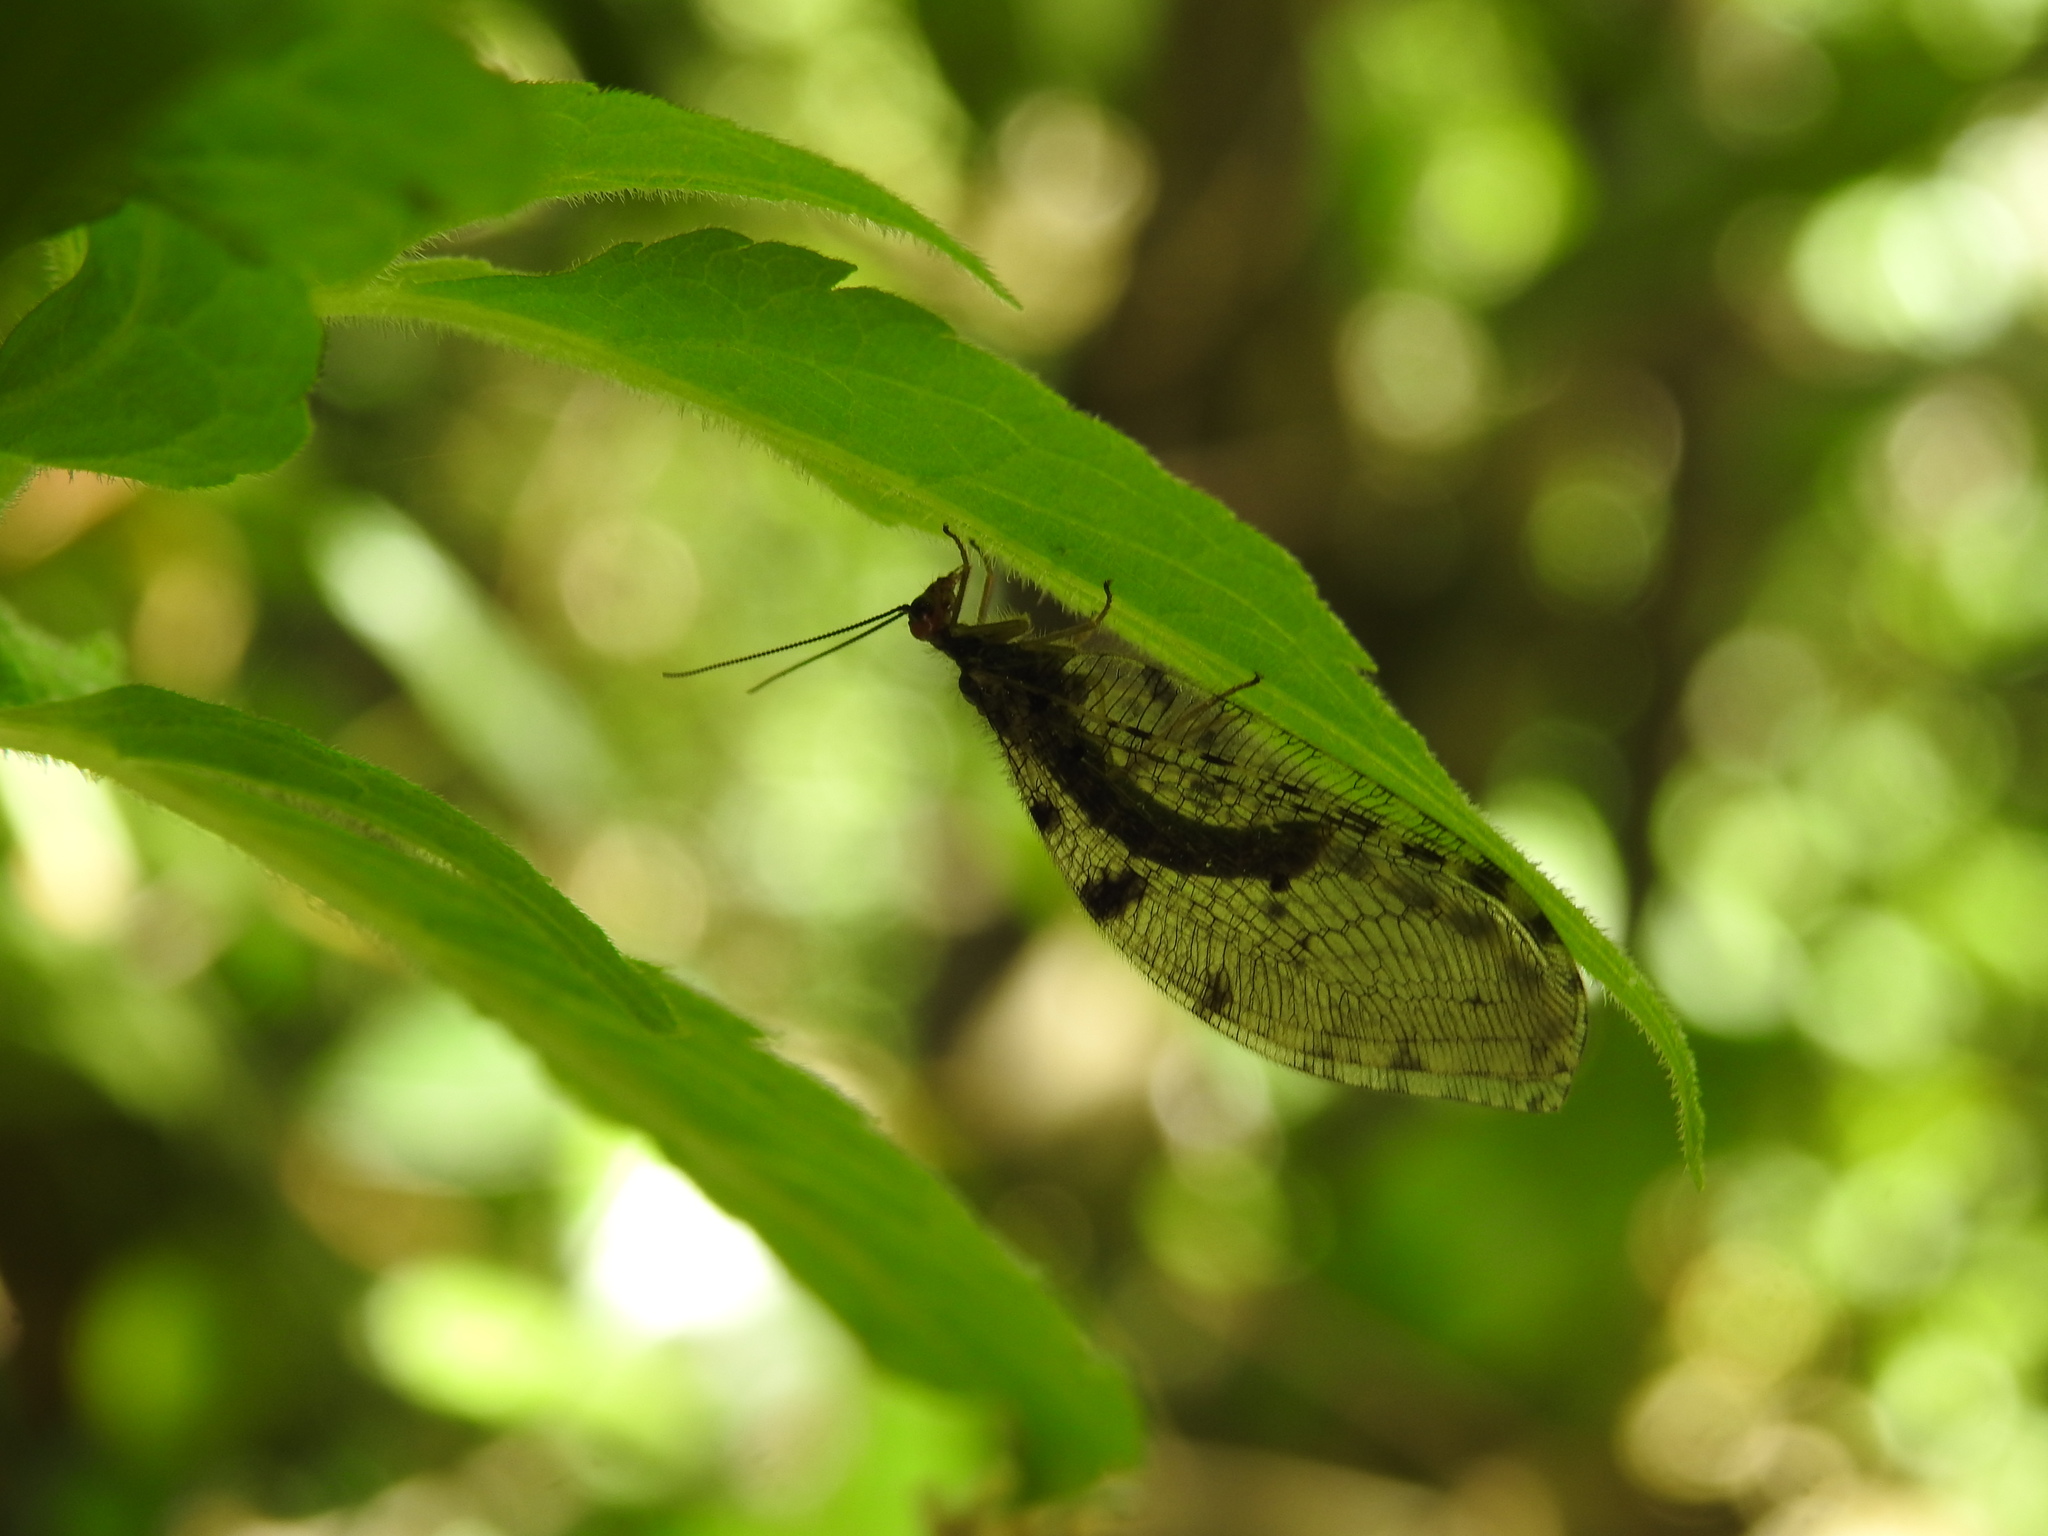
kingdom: Animalia
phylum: Arthropoda
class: Insecta
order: Neuroptera
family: Osmylidae
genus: Osmylus
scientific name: Osmylus fulvicephalus
